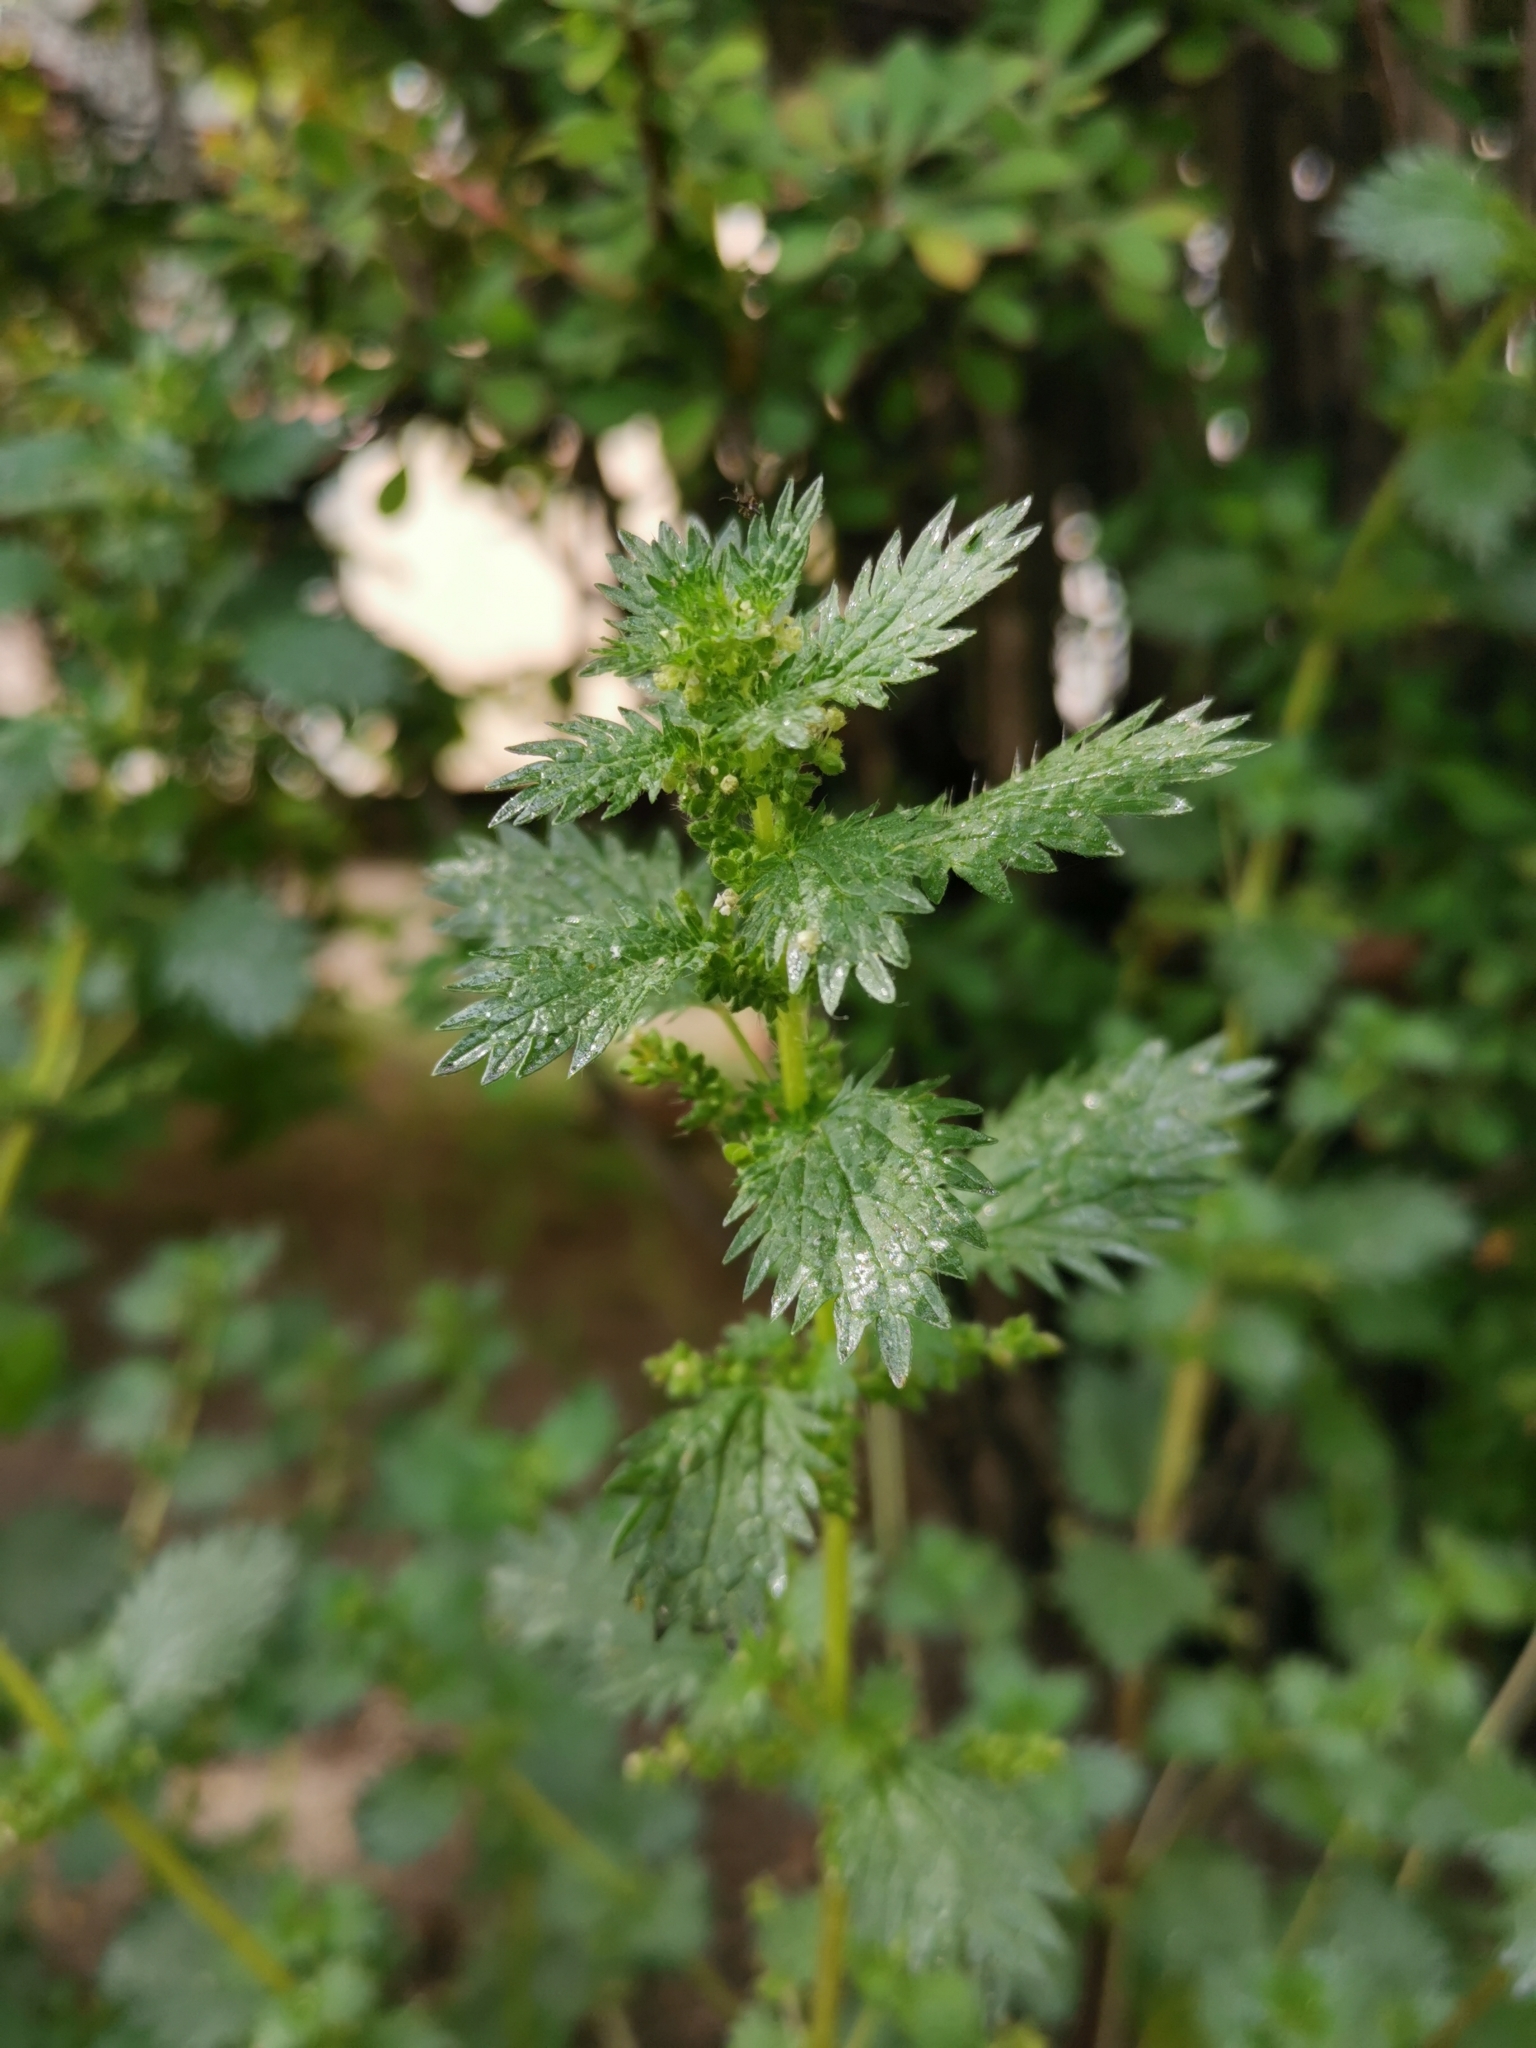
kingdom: Plantae
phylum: Tracheophyta
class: Magnoliopsida
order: Rosales
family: Urticaceae
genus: Urtica
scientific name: Urtica urens
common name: Dwarf nettle
